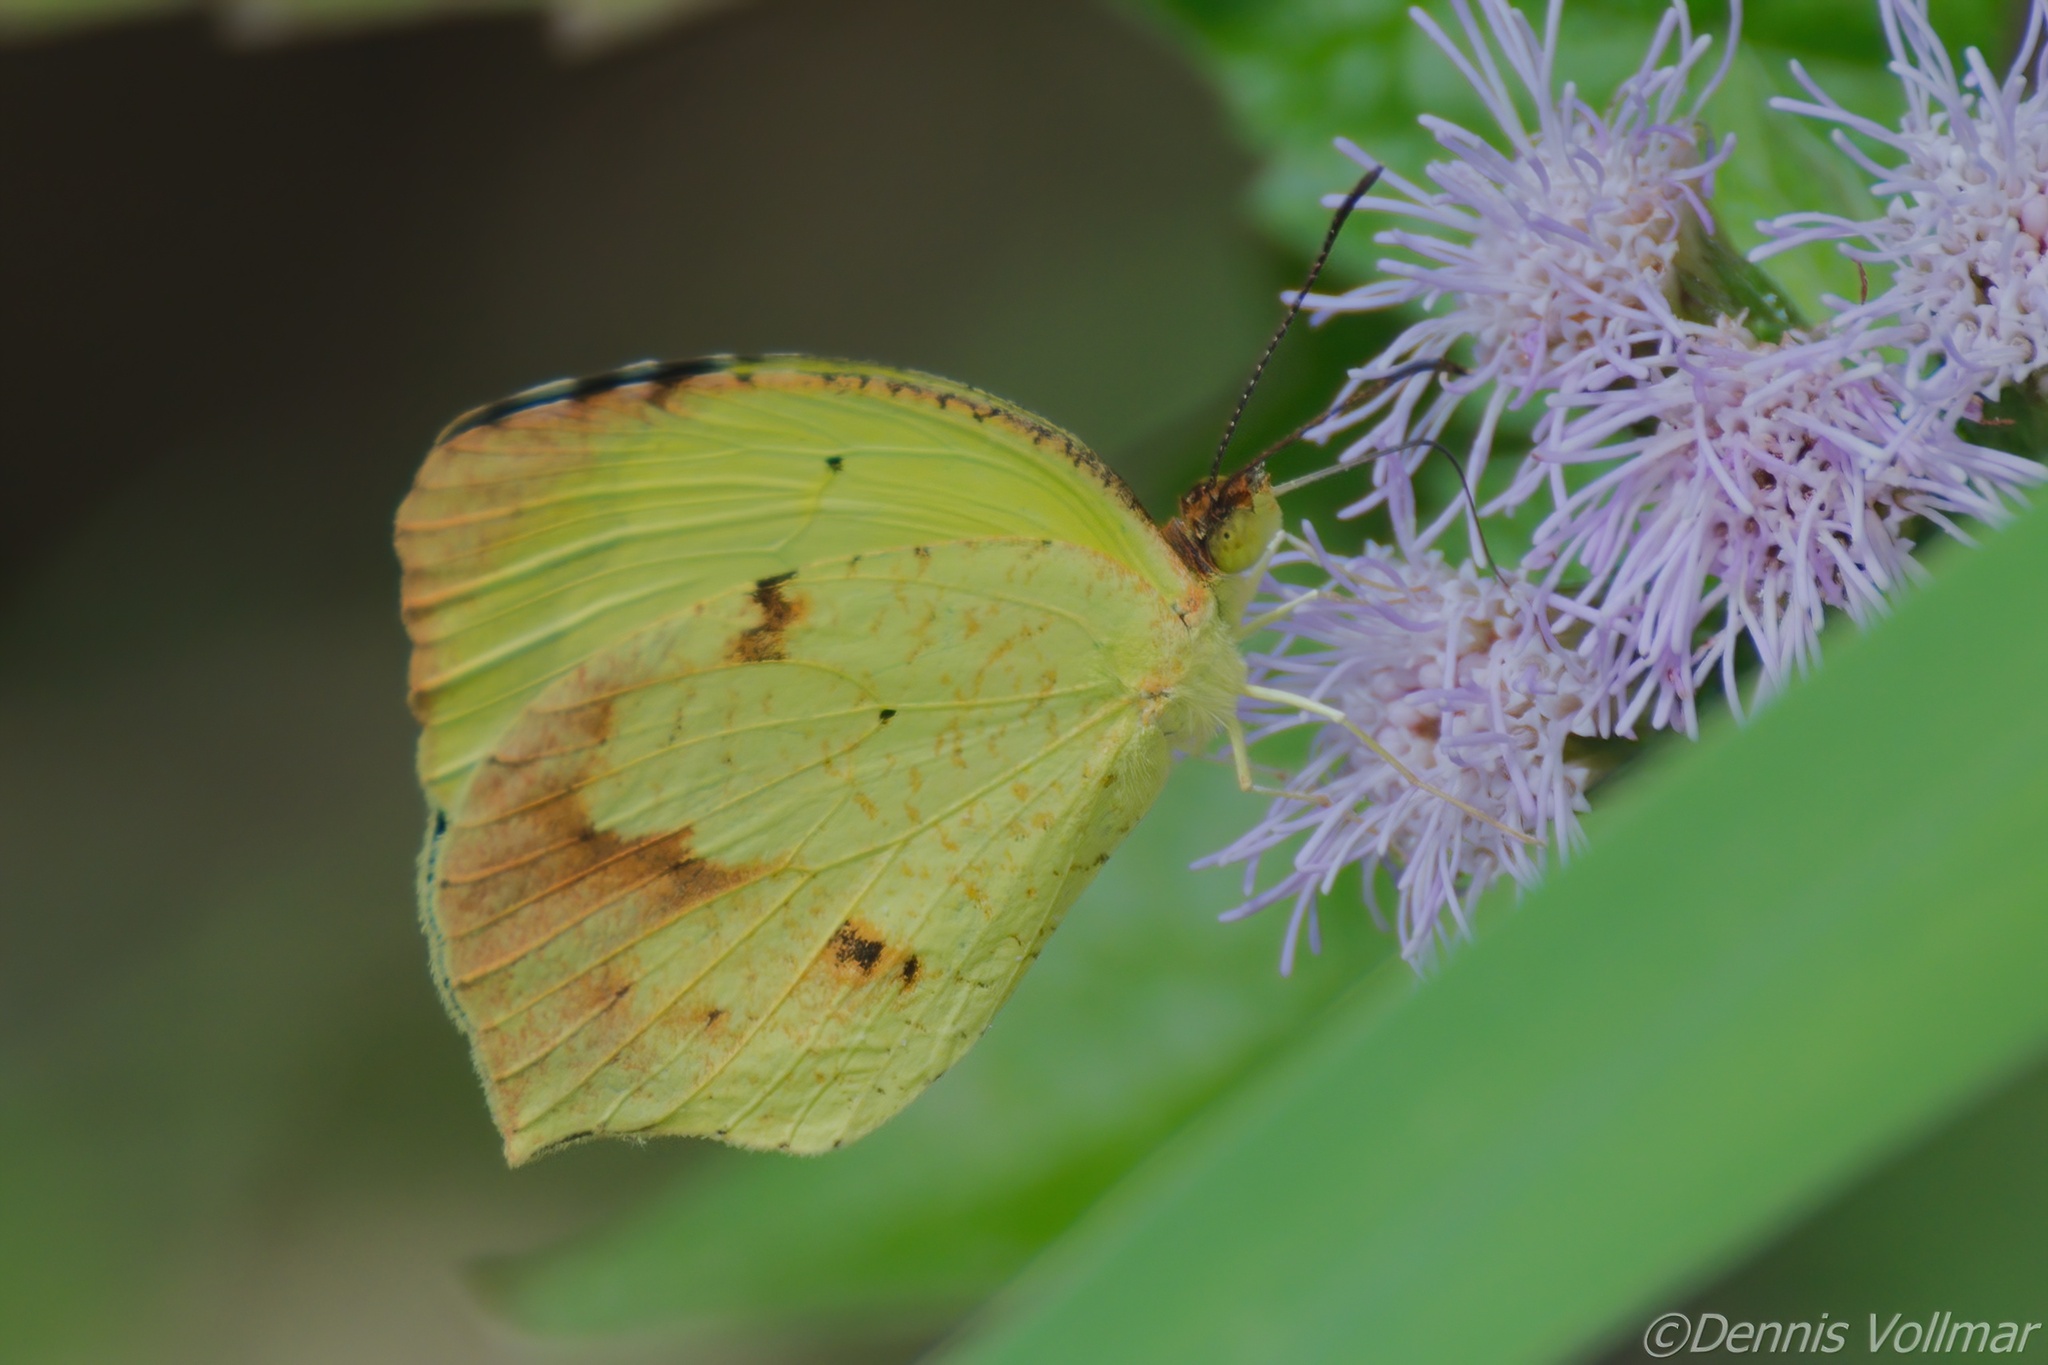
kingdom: Animalia
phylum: Arthropoda
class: Insecta
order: Lepidoptera
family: Pieridae
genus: Abaeis
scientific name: Abaeis boisduvaliana
